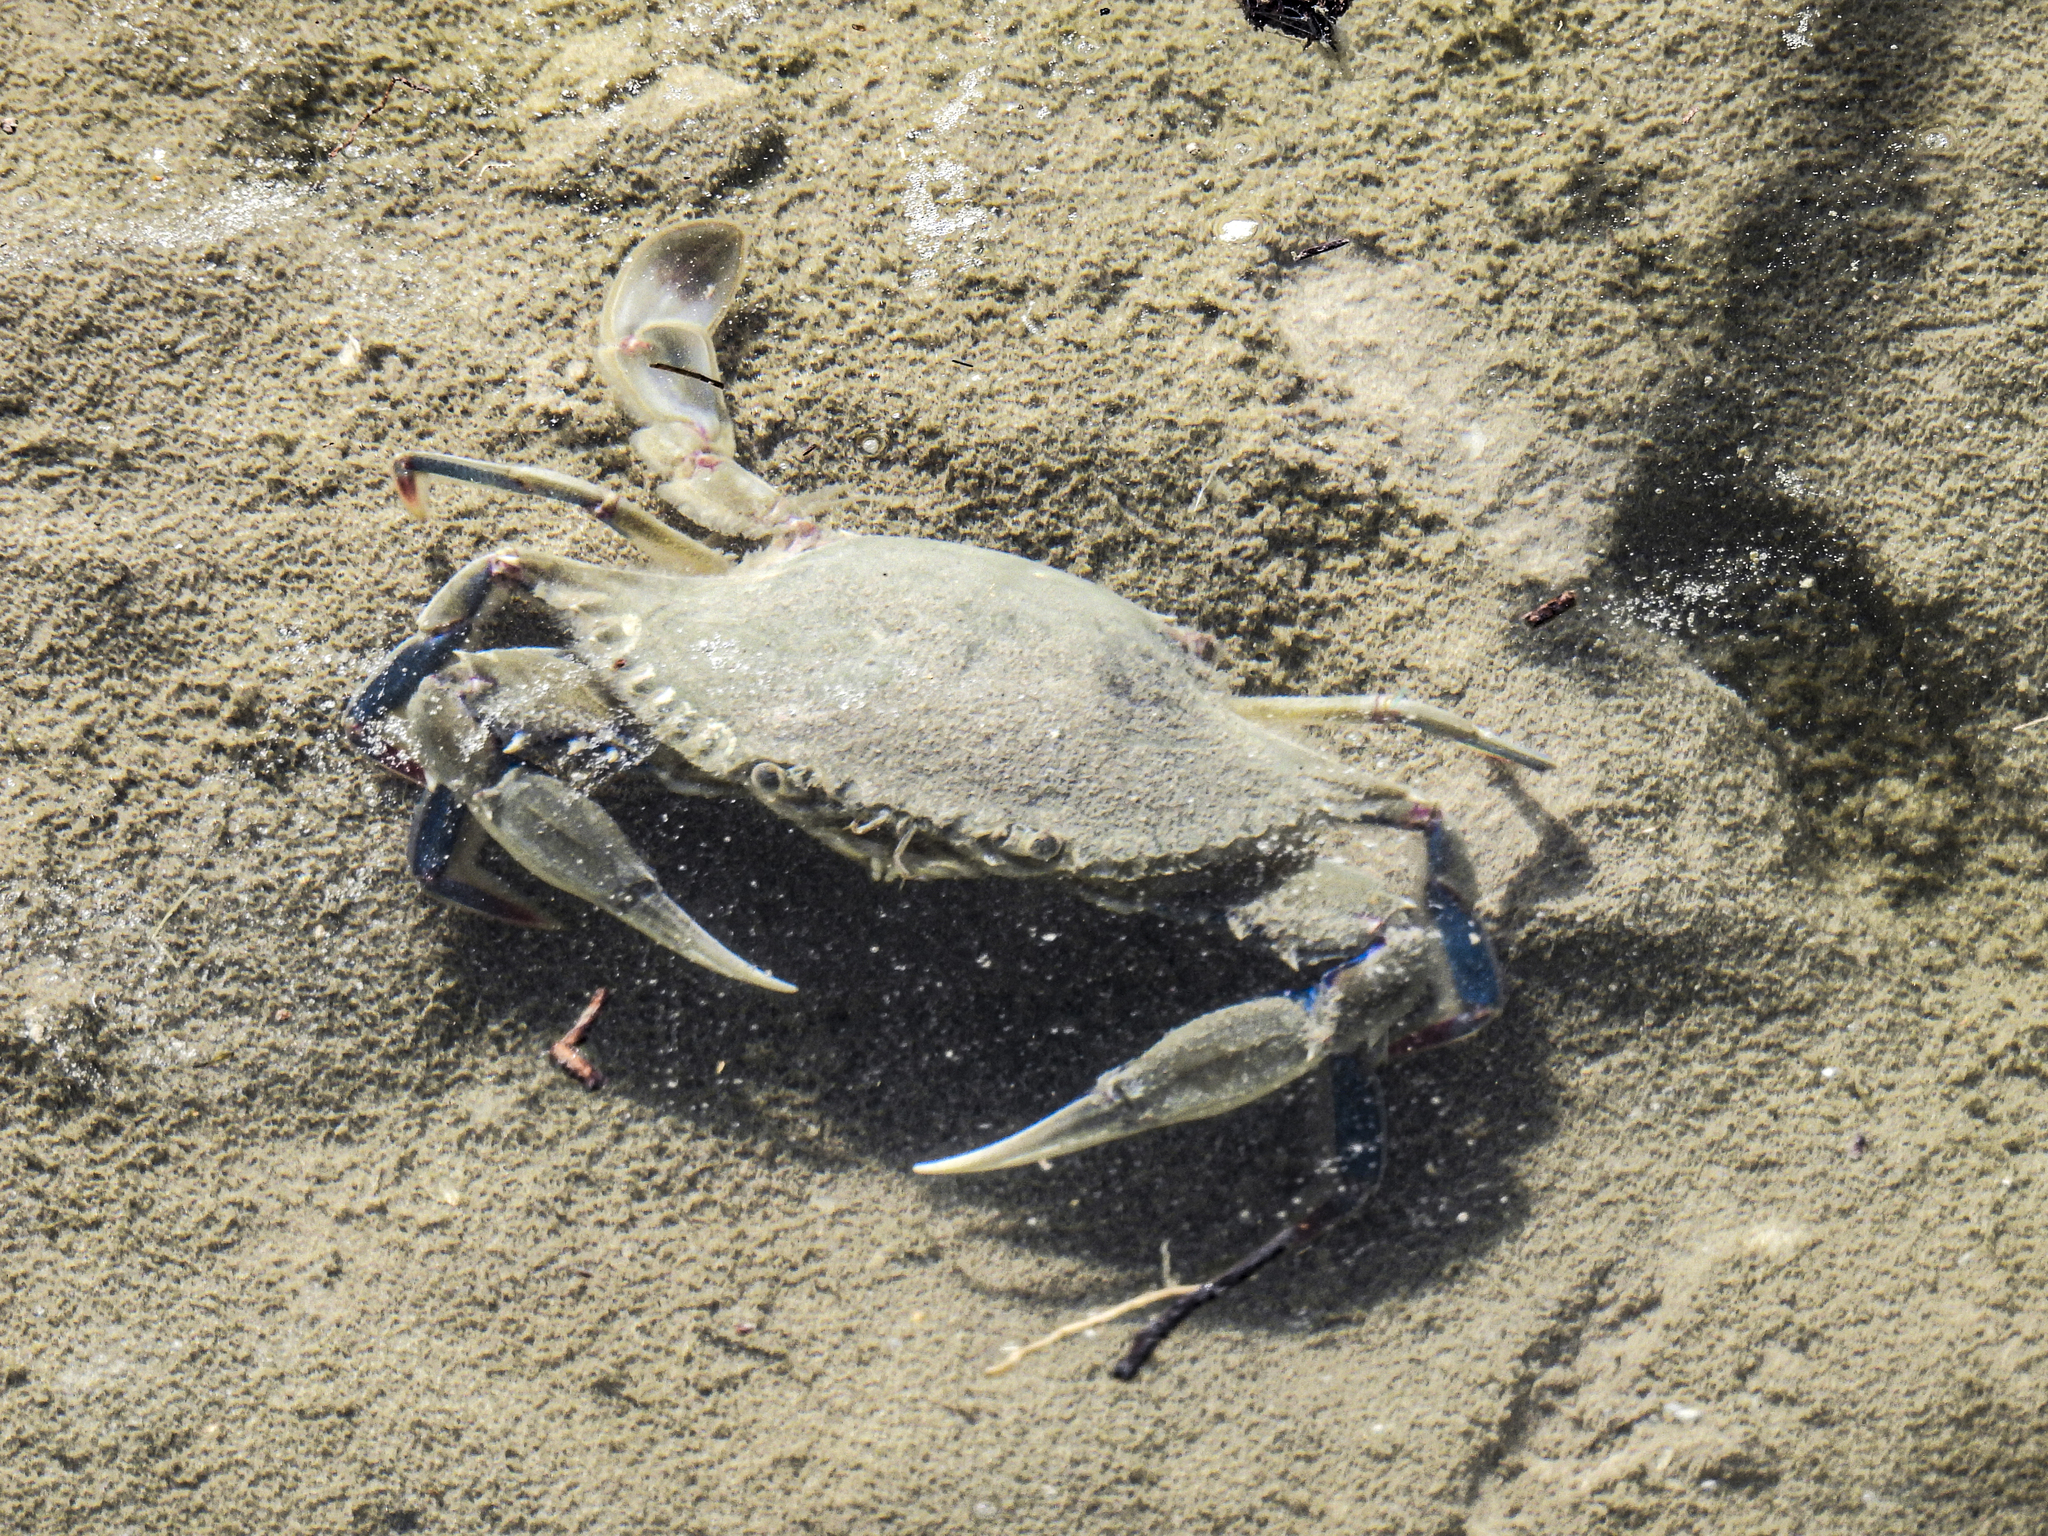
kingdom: Animalia
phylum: Arthropoda
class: Malacostraca
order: Decapoda
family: Portunidae
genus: Callinectes
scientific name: Callinectes similis
